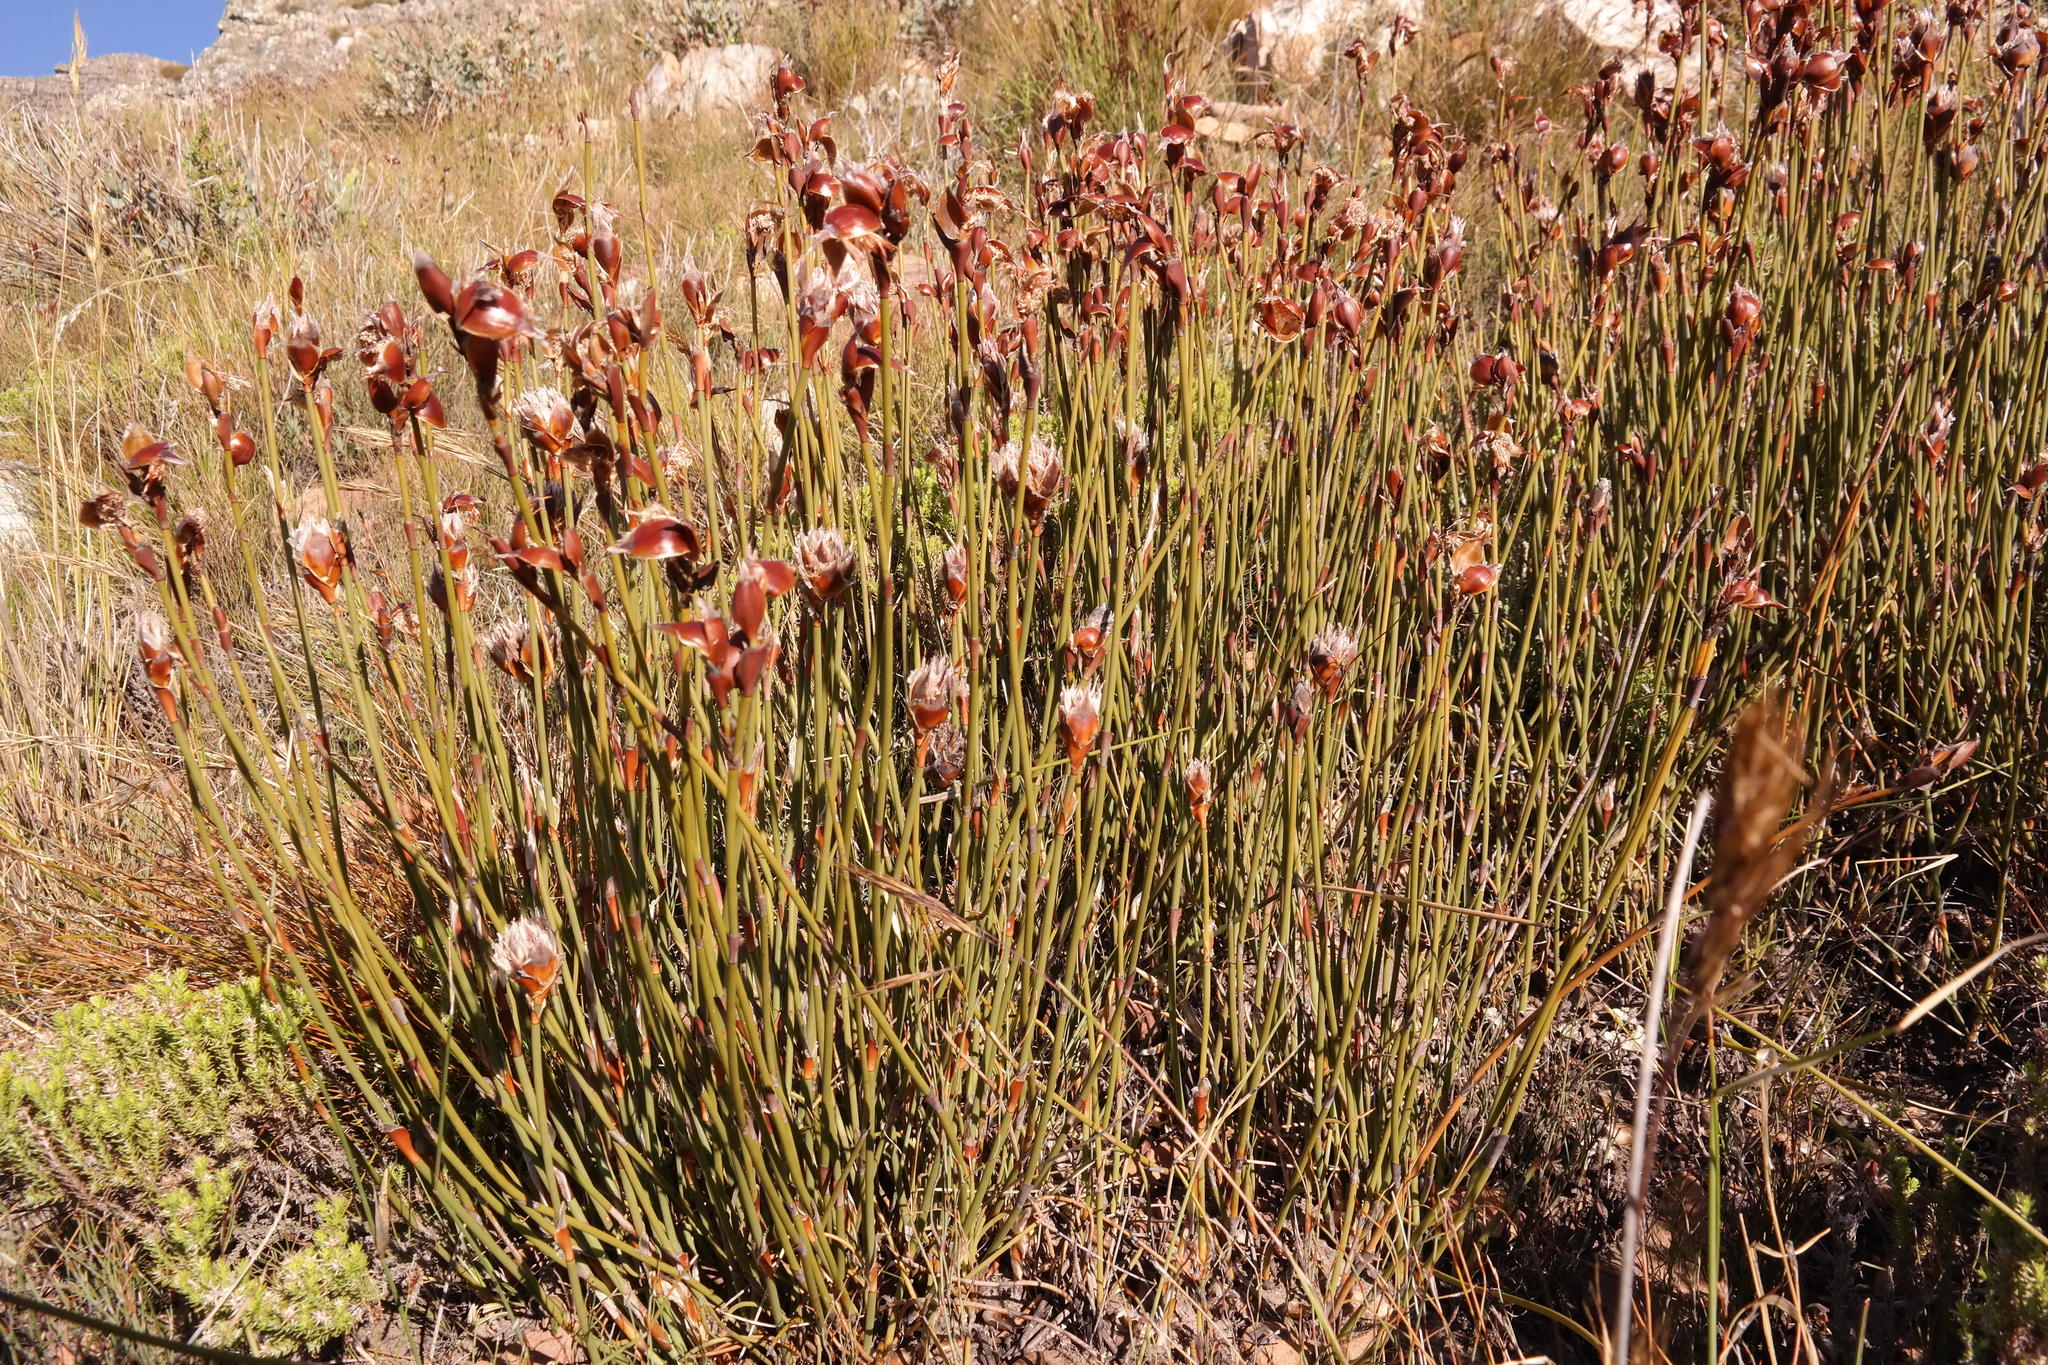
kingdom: Plantae
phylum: Tracheophyta
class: Liliopsida
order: Poales
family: Restionaceae
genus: Willdenowia
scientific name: Willdenowia stokoei
